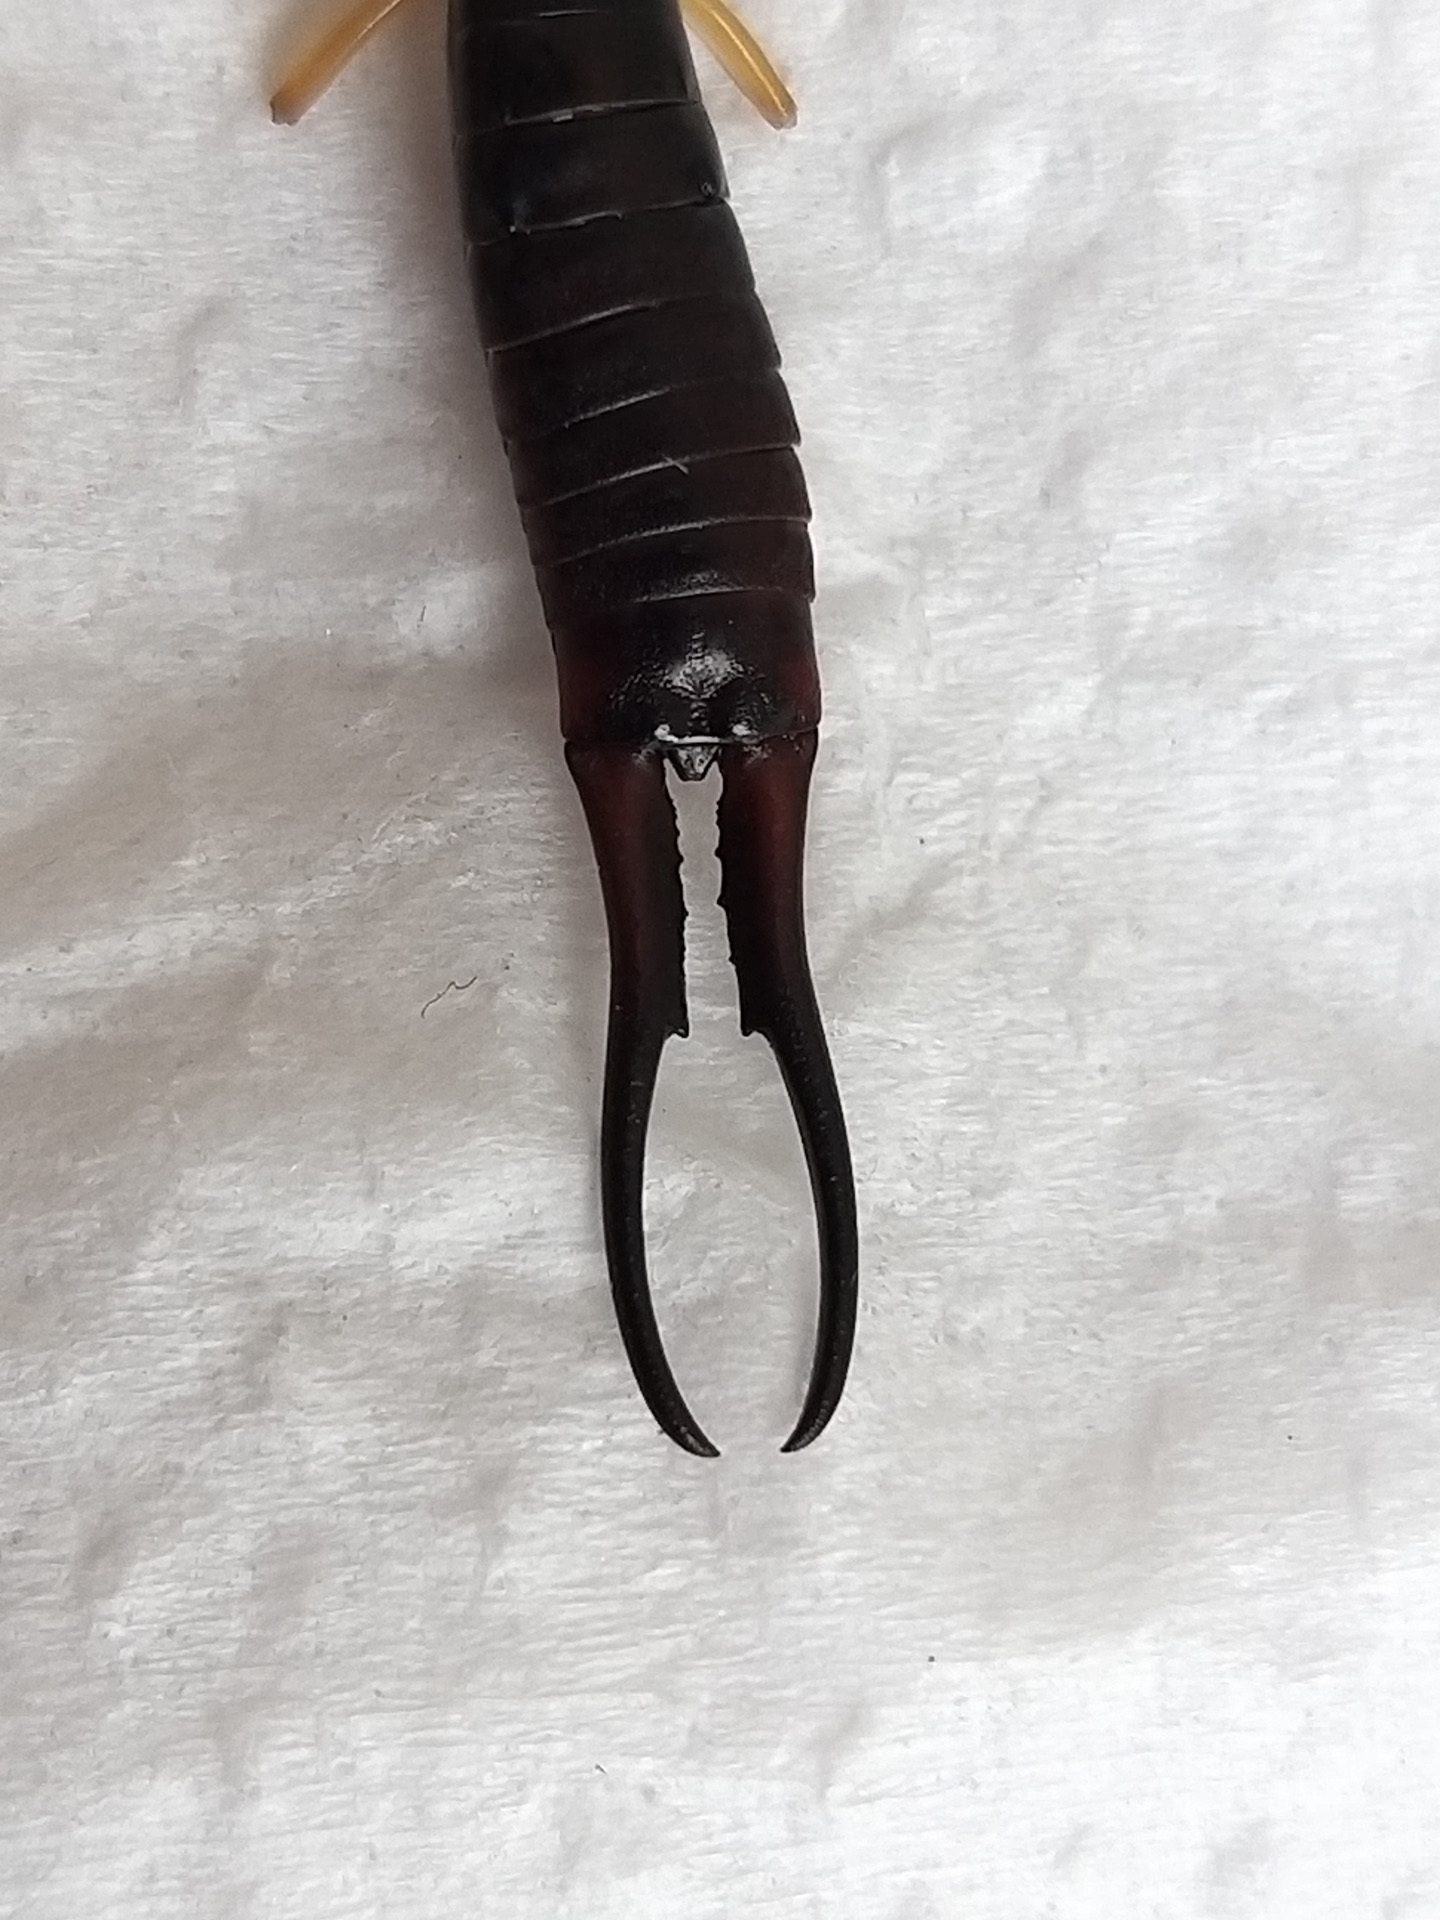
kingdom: Animalia
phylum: Arthropoda
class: Insecta
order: Dermaptera
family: Forficulidae
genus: Forficula
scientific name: Forficula tomis
